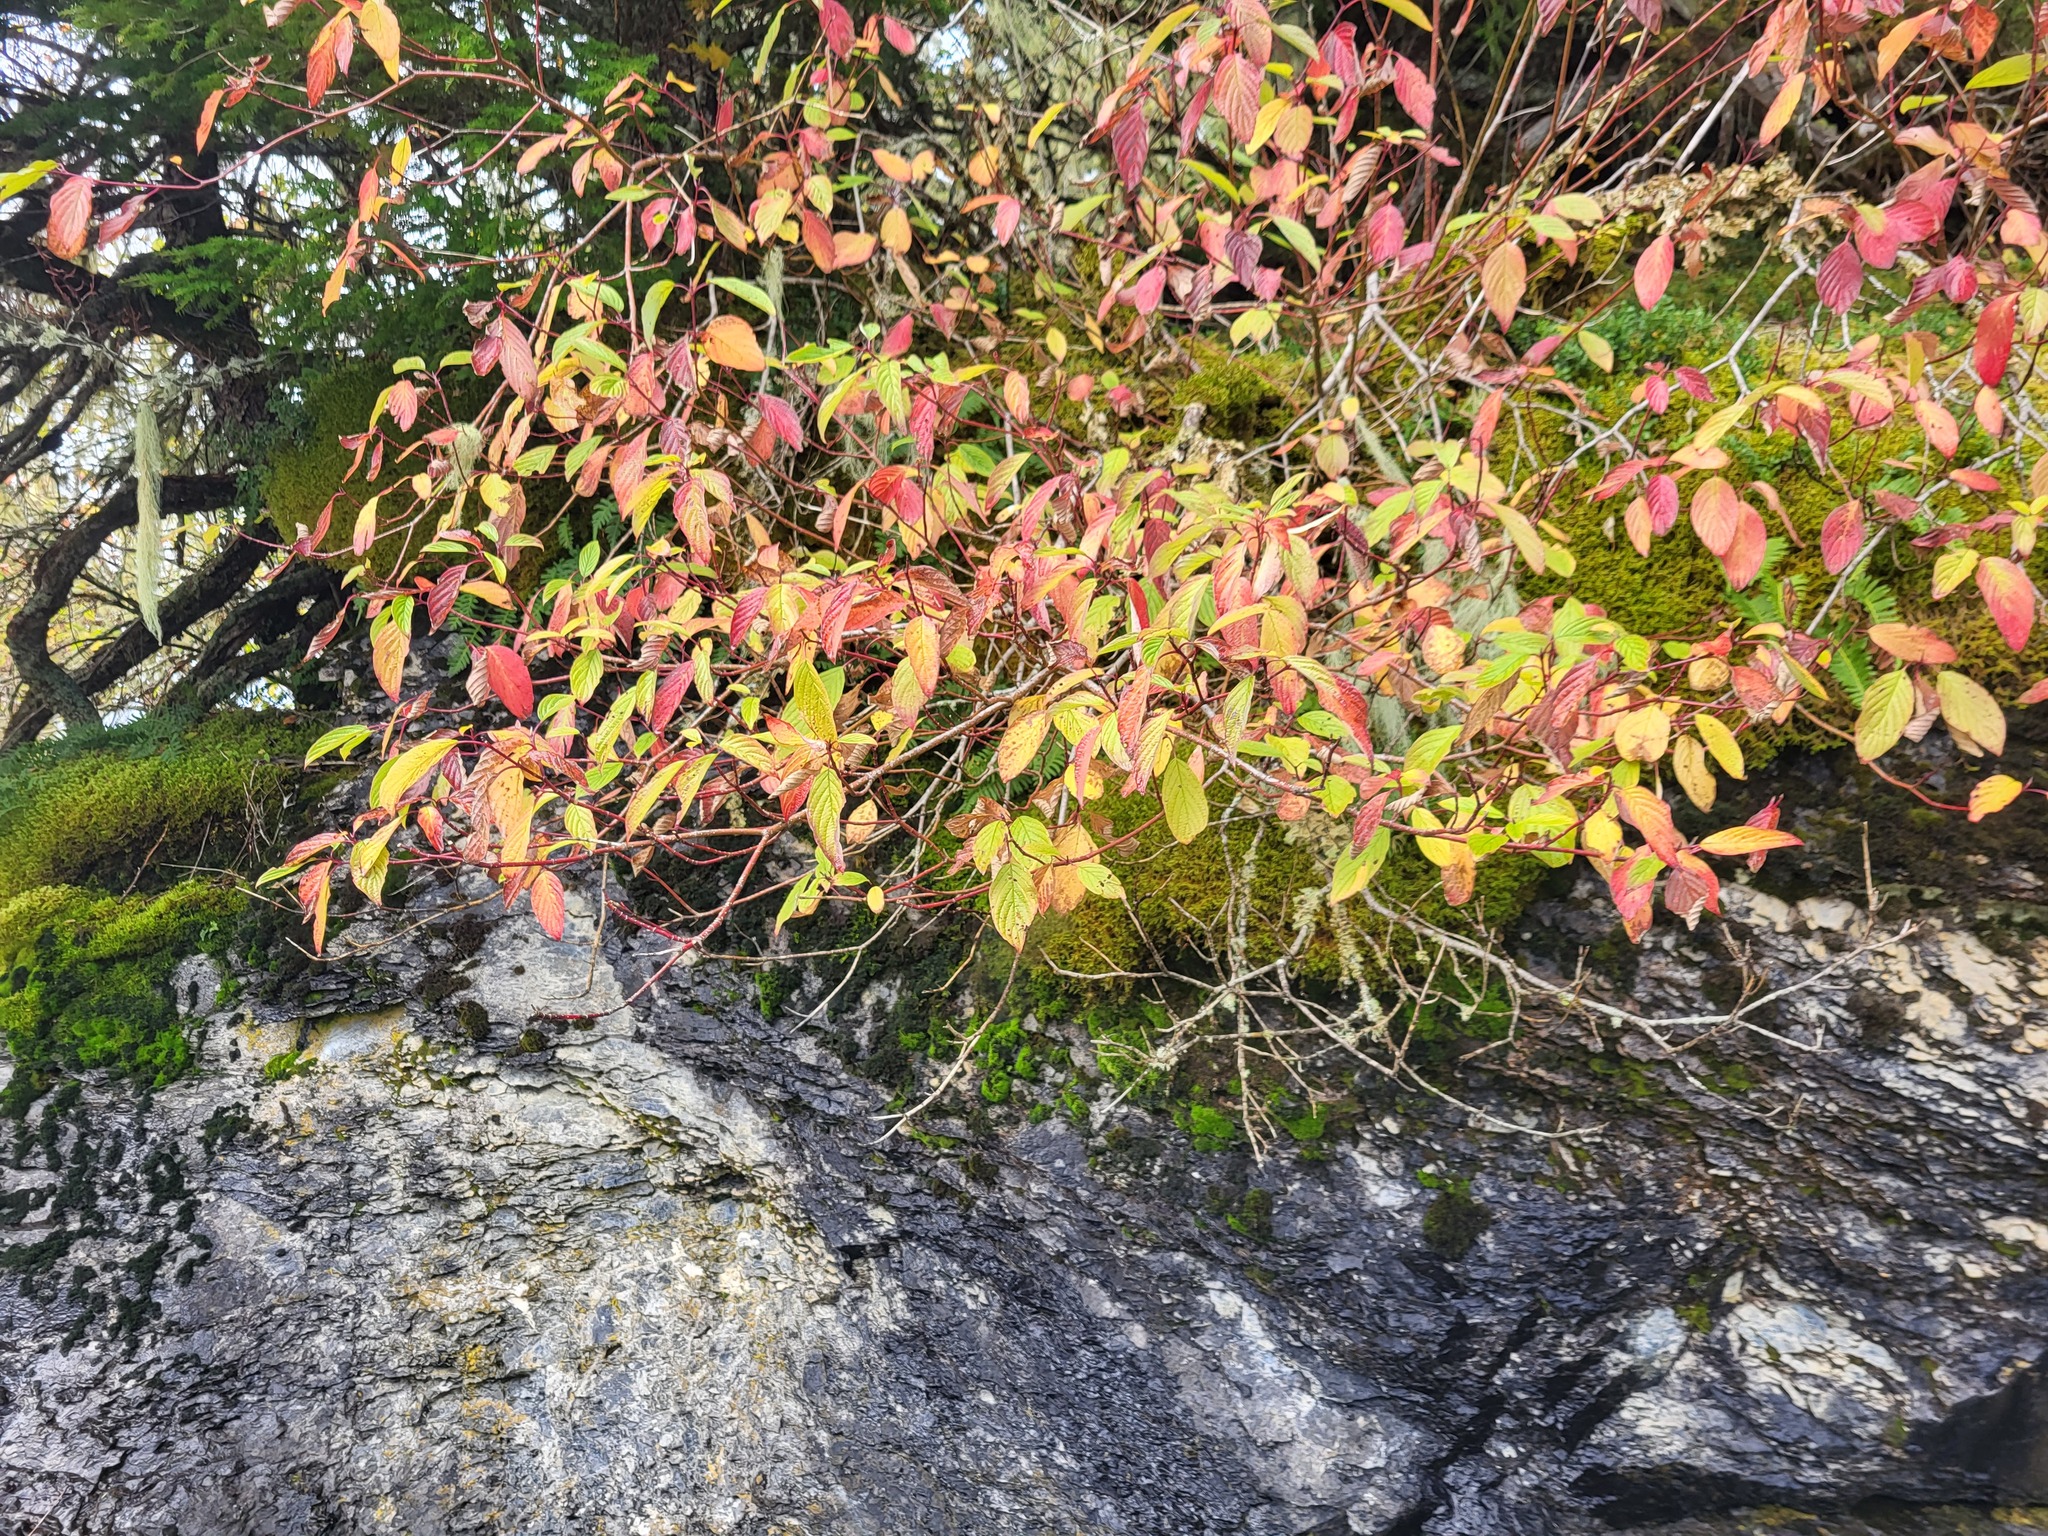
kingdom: Plantae
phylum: Tracheophyta
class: Magnoliopsida
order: Cornales
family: Cornaceae
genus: Cornus
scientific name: Cornus sericea
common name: Red-osier dogwood
